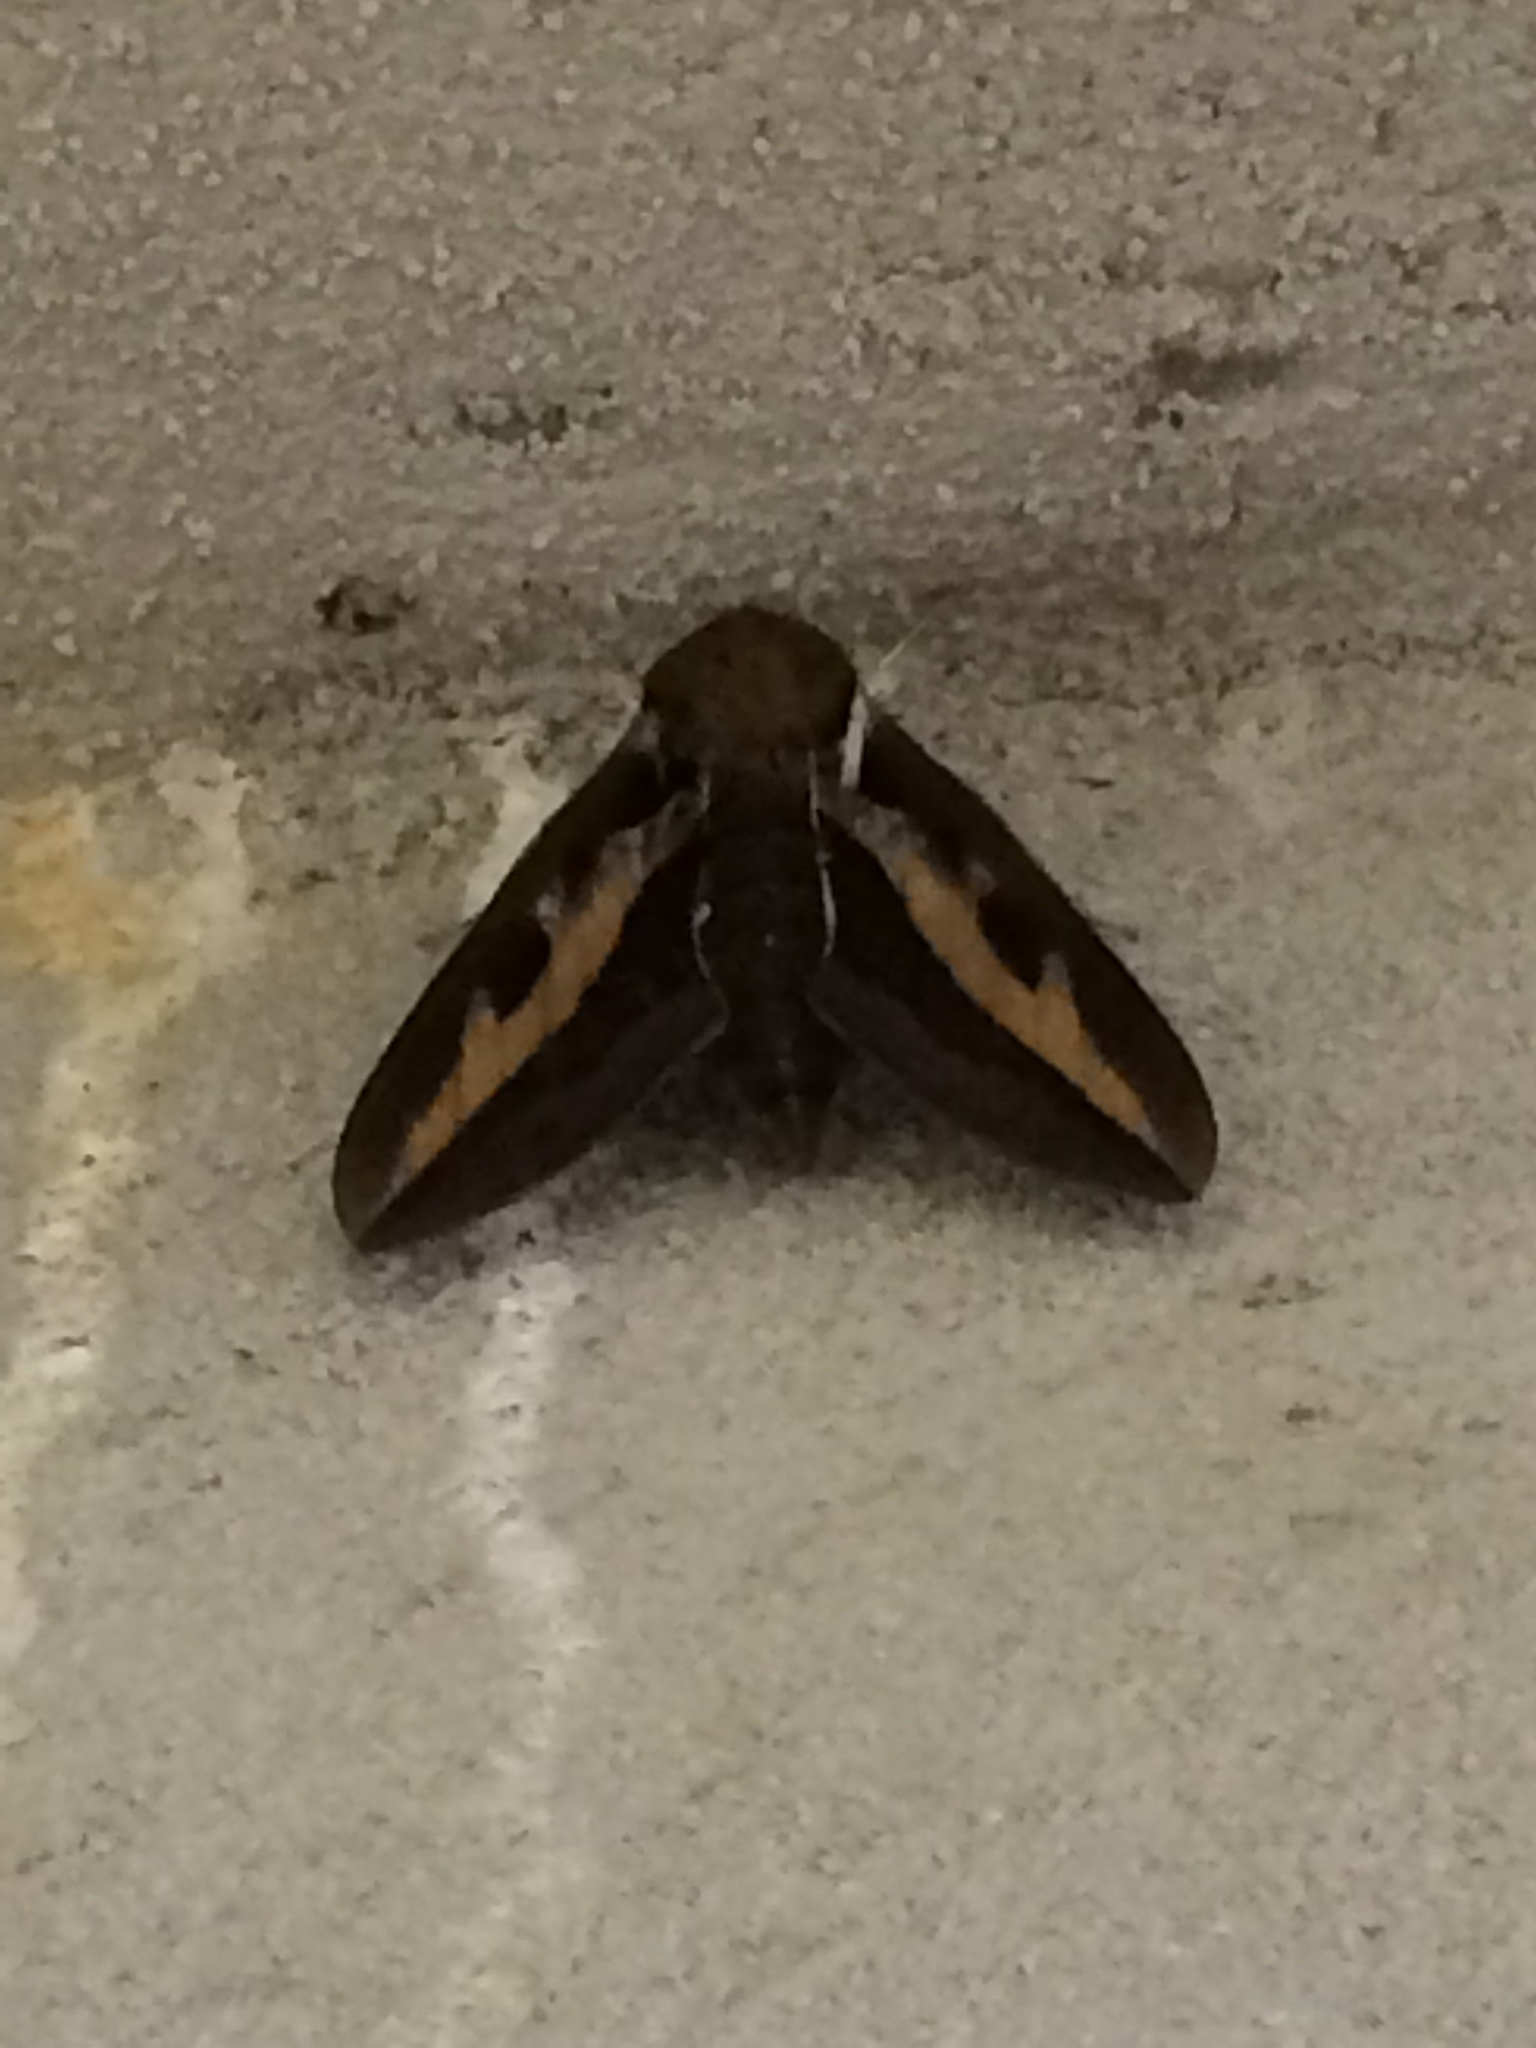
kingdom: Animalia
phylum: Arthropoda
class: Insecta
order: Lepidoptera
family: Sphingidae
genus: Hyles
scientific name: Hyles gallii
